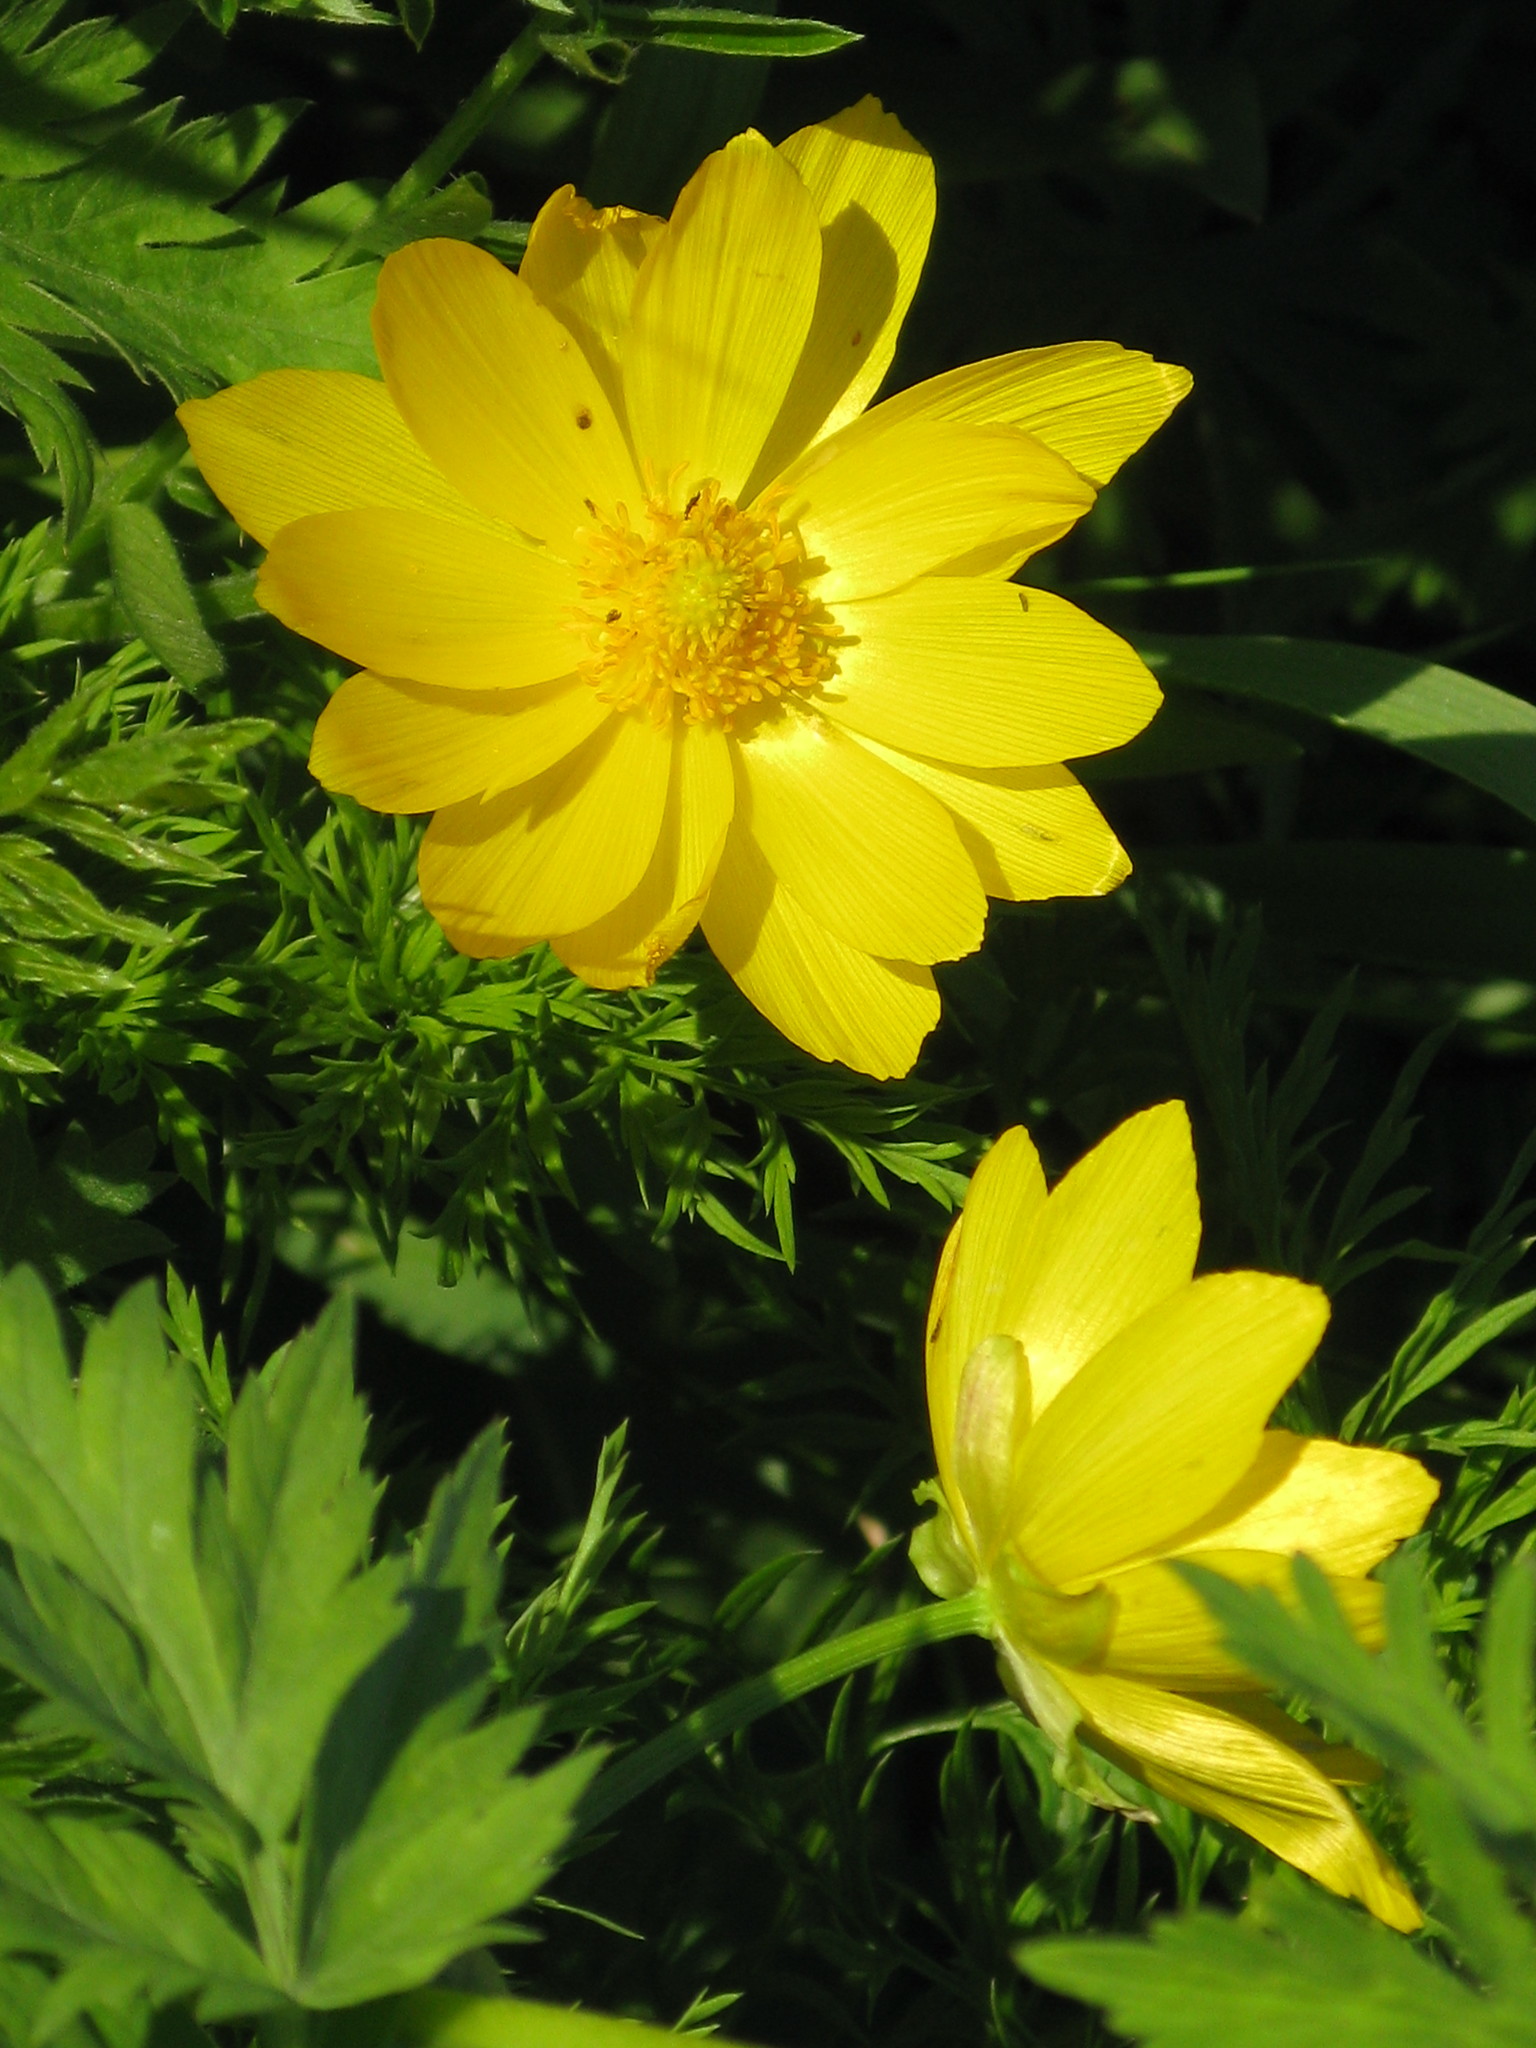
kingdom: Plantae
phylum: Tracheophyta
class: Magnoliopsida
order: Ranunculales
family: Ranunculaceae
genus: Adonis
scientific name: Adonis vernalis
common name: Yellow pheasants-eye
